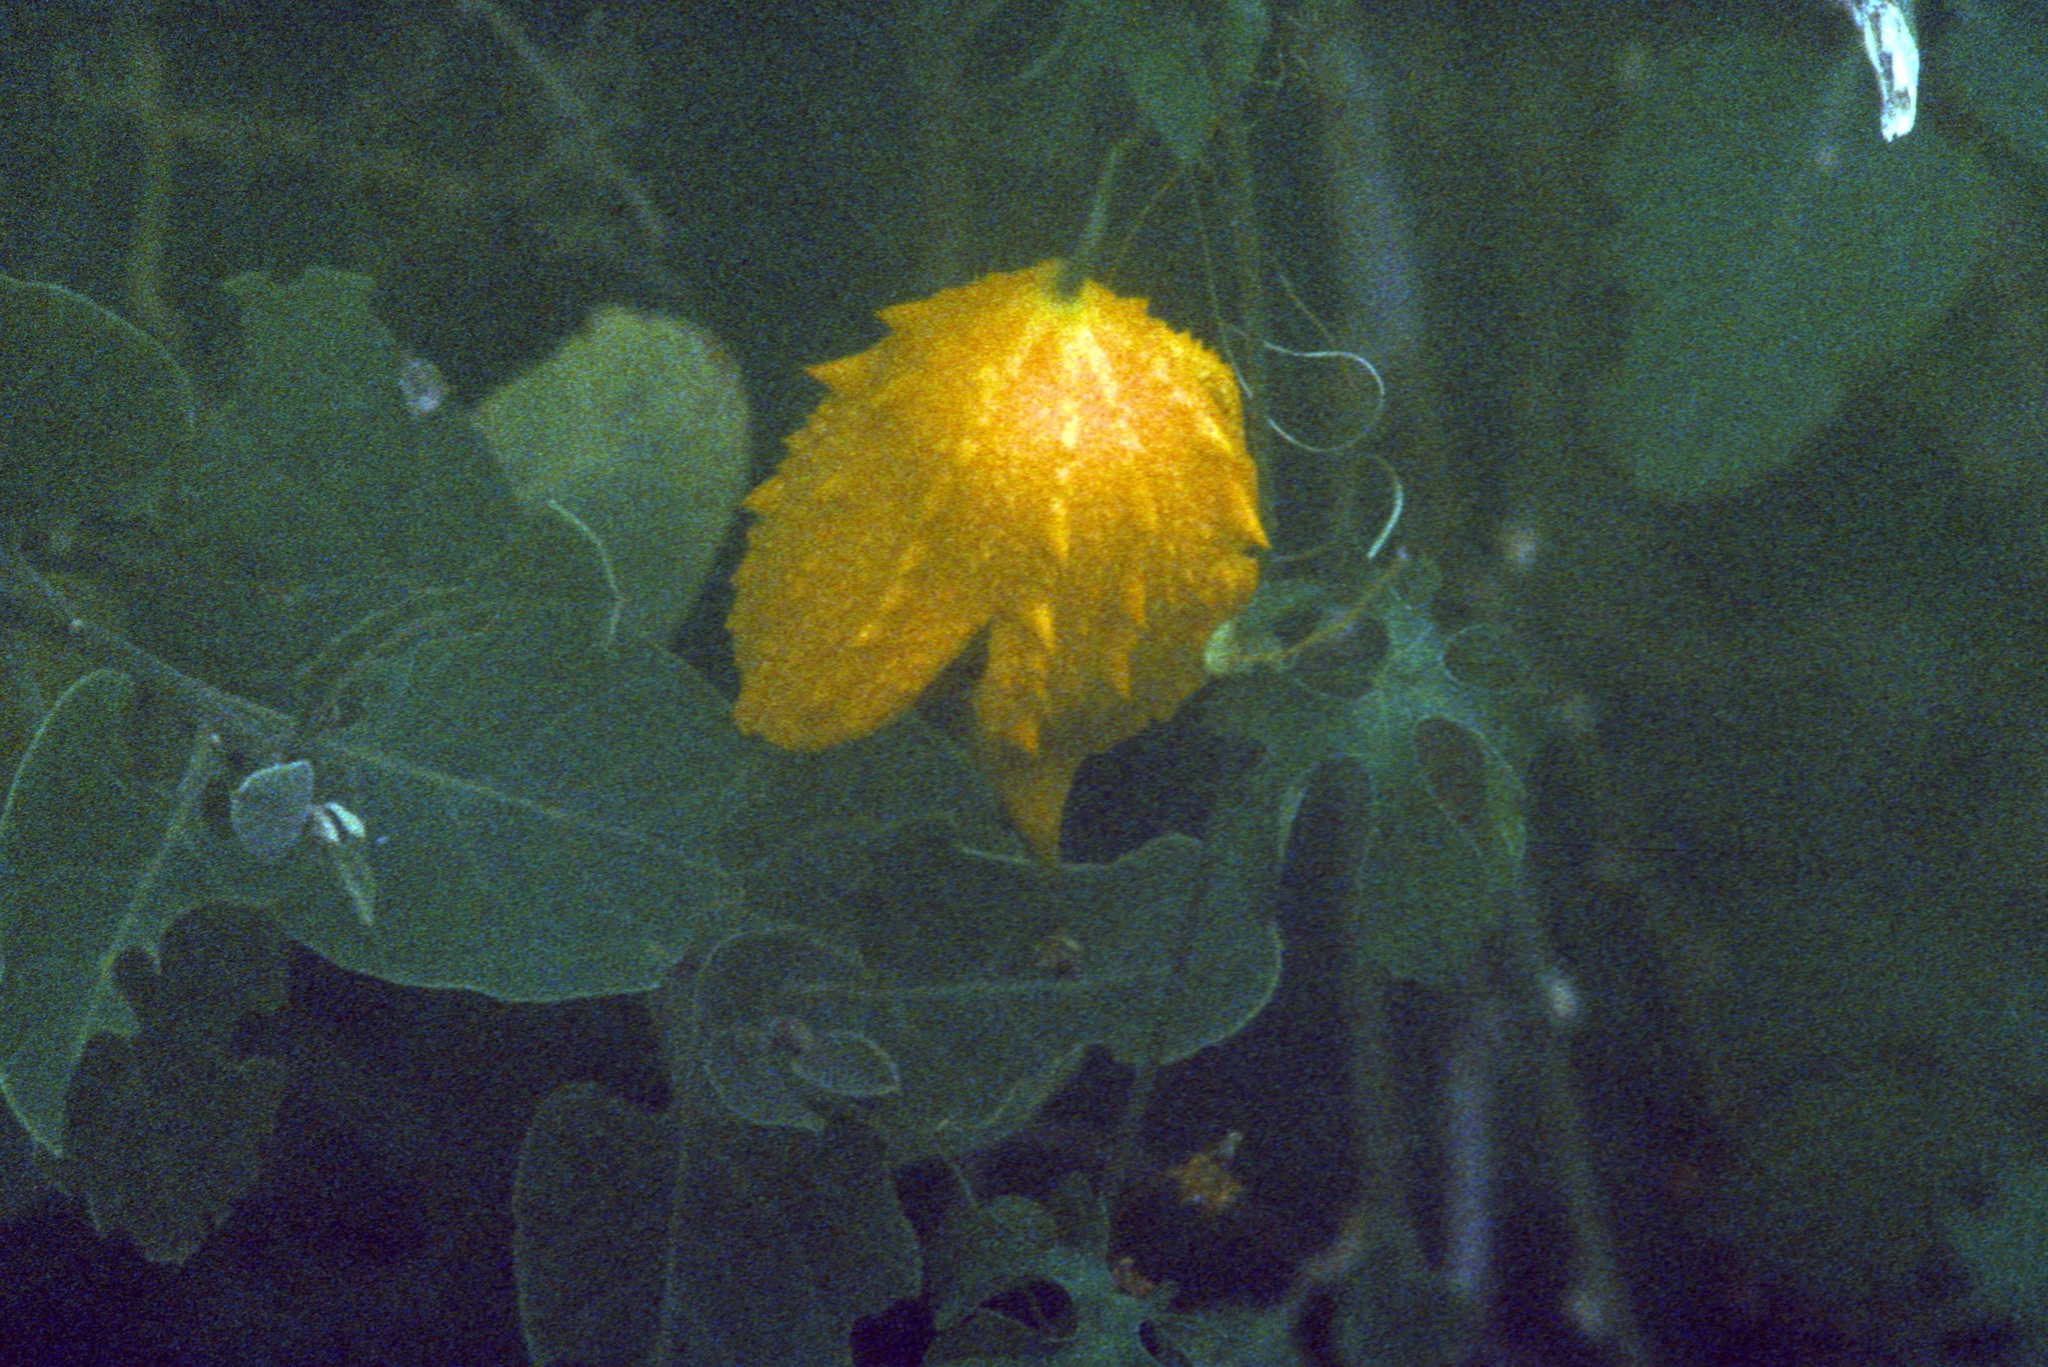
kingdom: Plantae
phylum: Tracheophyta
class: Magnoliopsida
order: Cucurbitales
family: Cucurbitaceae
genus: Momordica
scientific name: Momordica charantia
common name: Balsampear
